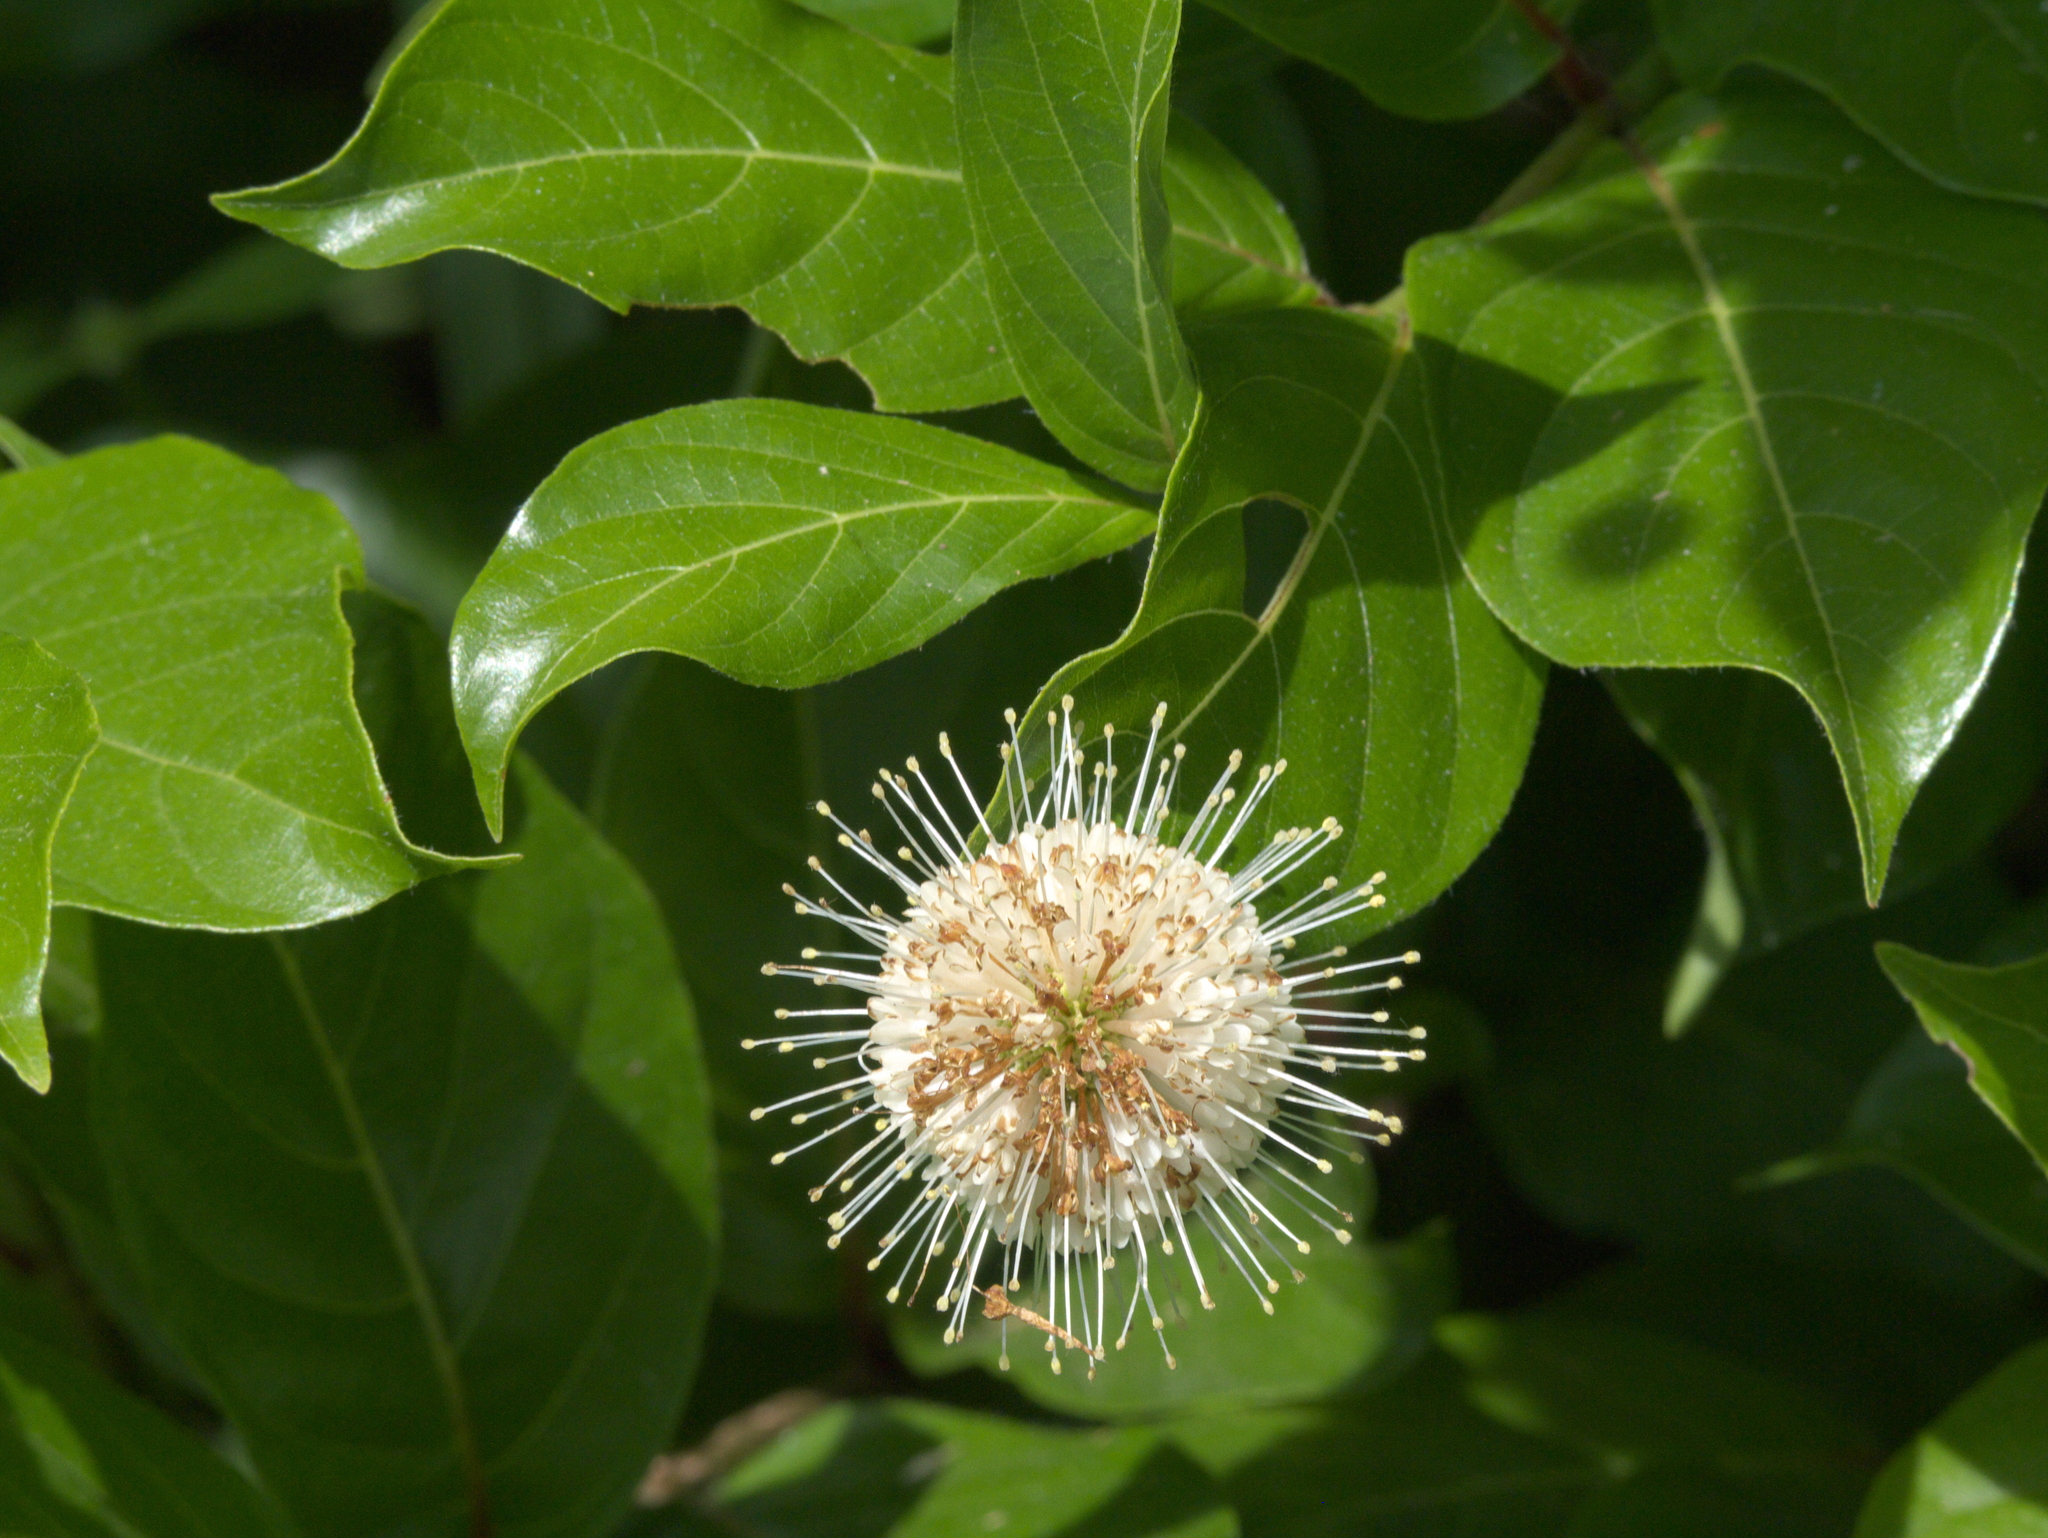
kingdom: Plantae
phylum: Tracheophyta
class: Magnoliopsida
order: Gentianales
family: Rubiaceae
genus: Cephalanthus
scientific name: Cephalanthus occidentalis
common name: Button-willow
